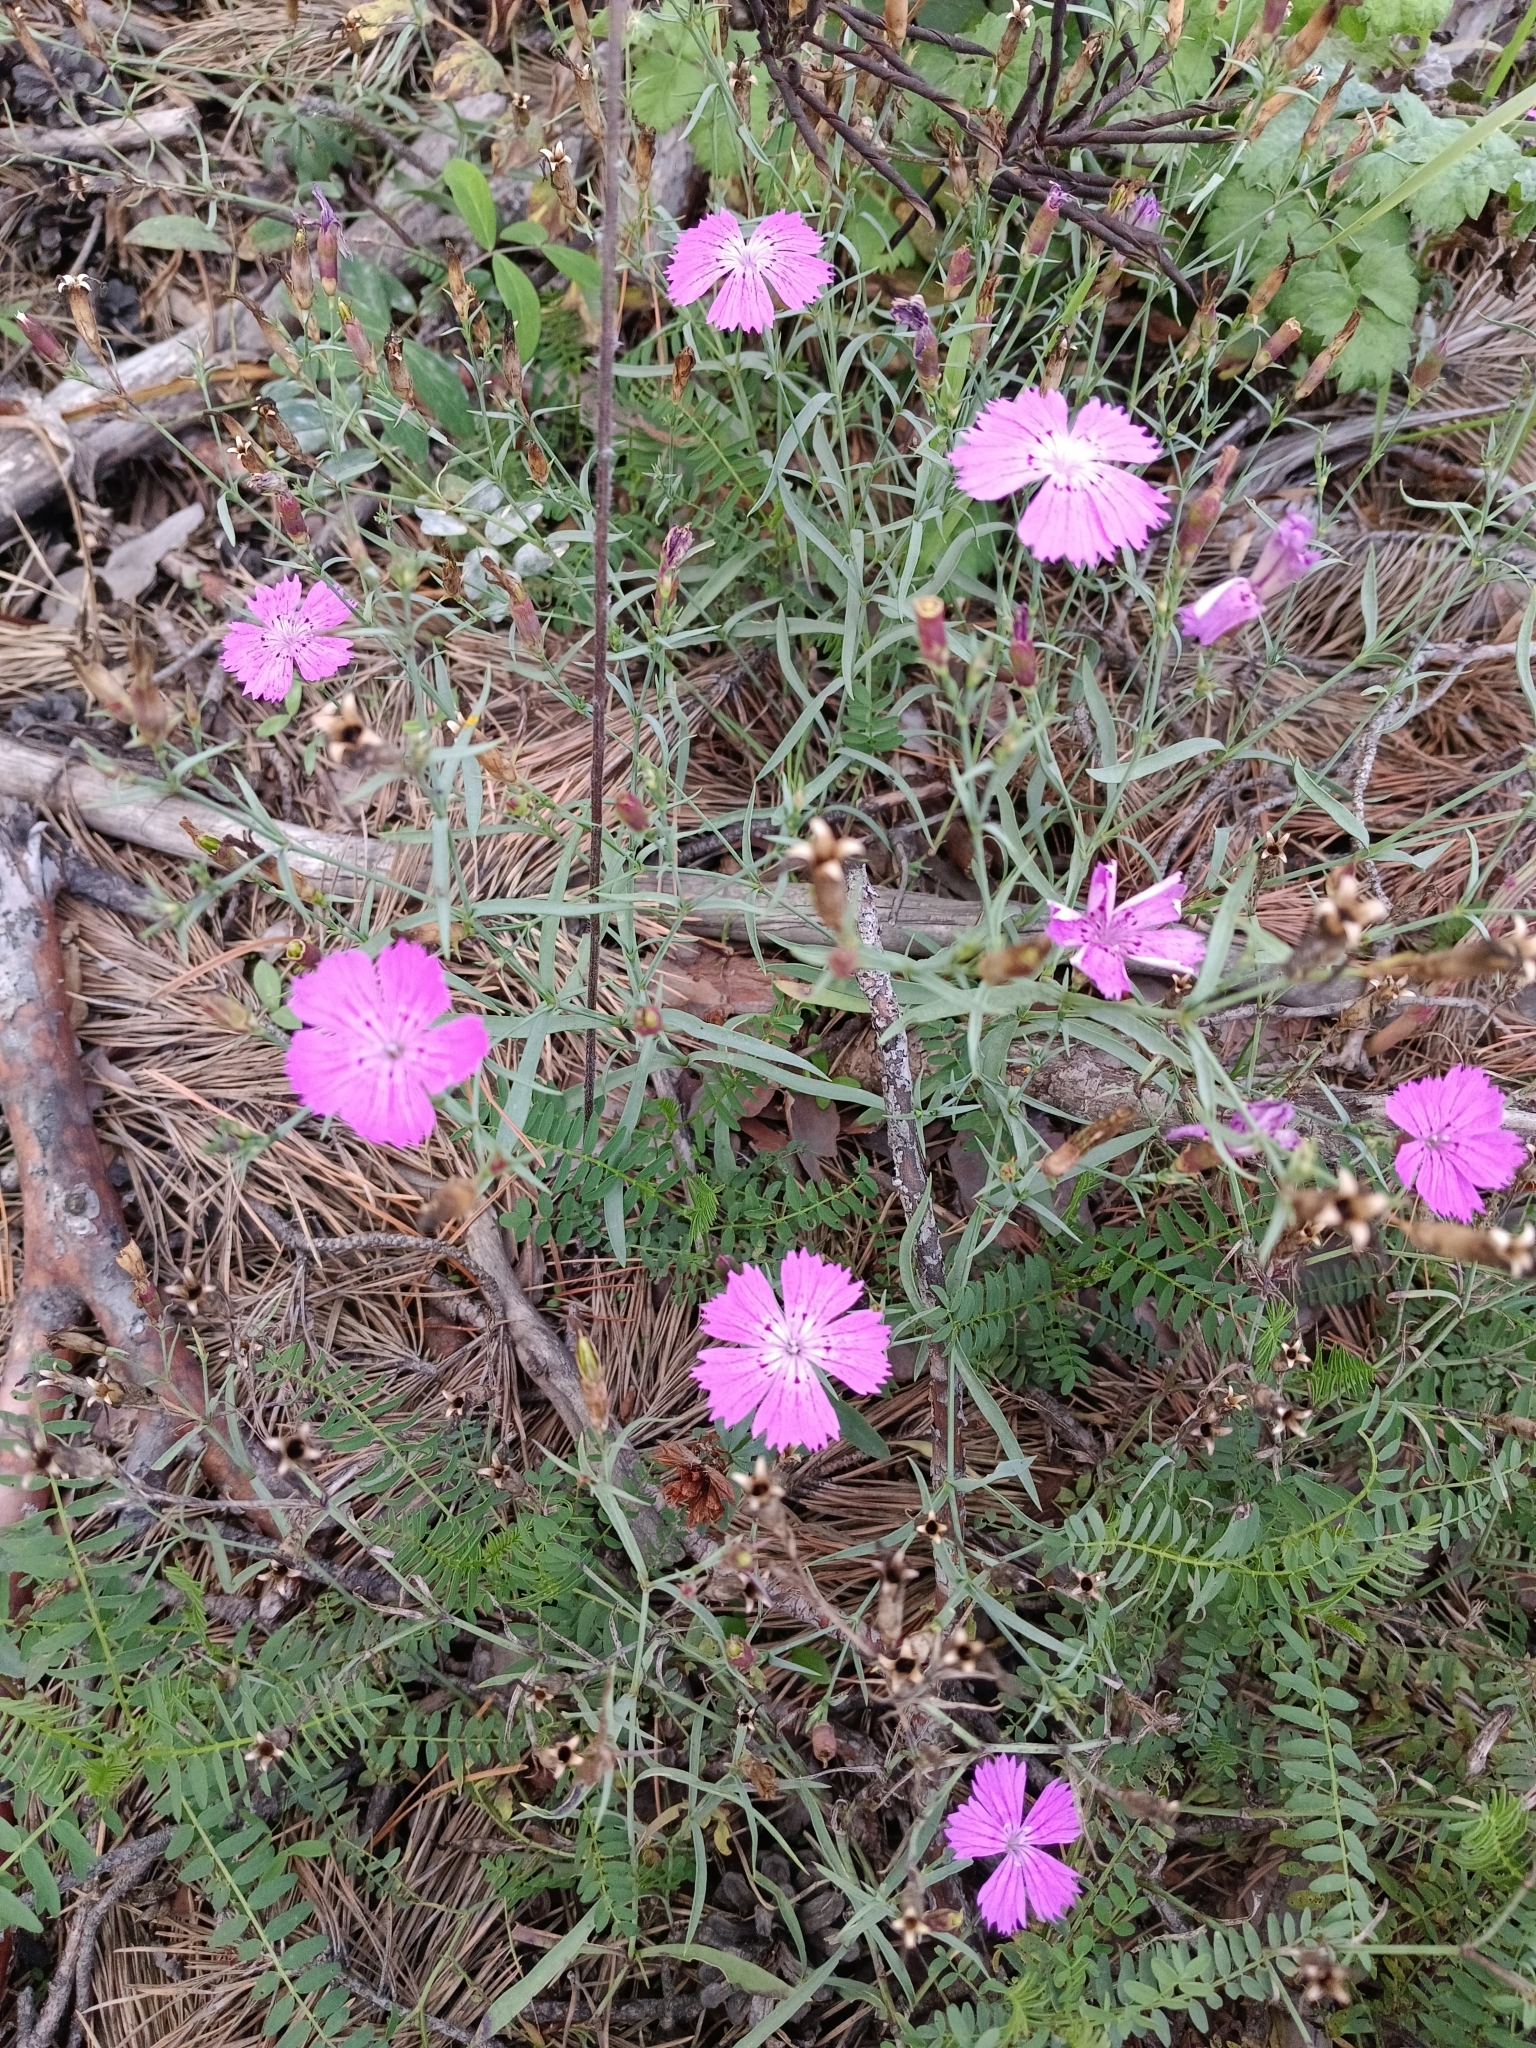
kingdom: Plantae
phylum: Tracheophyta
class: Magnoliopsida
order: Caryophyllales
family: Caryophyllaceae
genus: Dianthus
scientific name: Dianthus chinensis
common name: Rainbow pink
